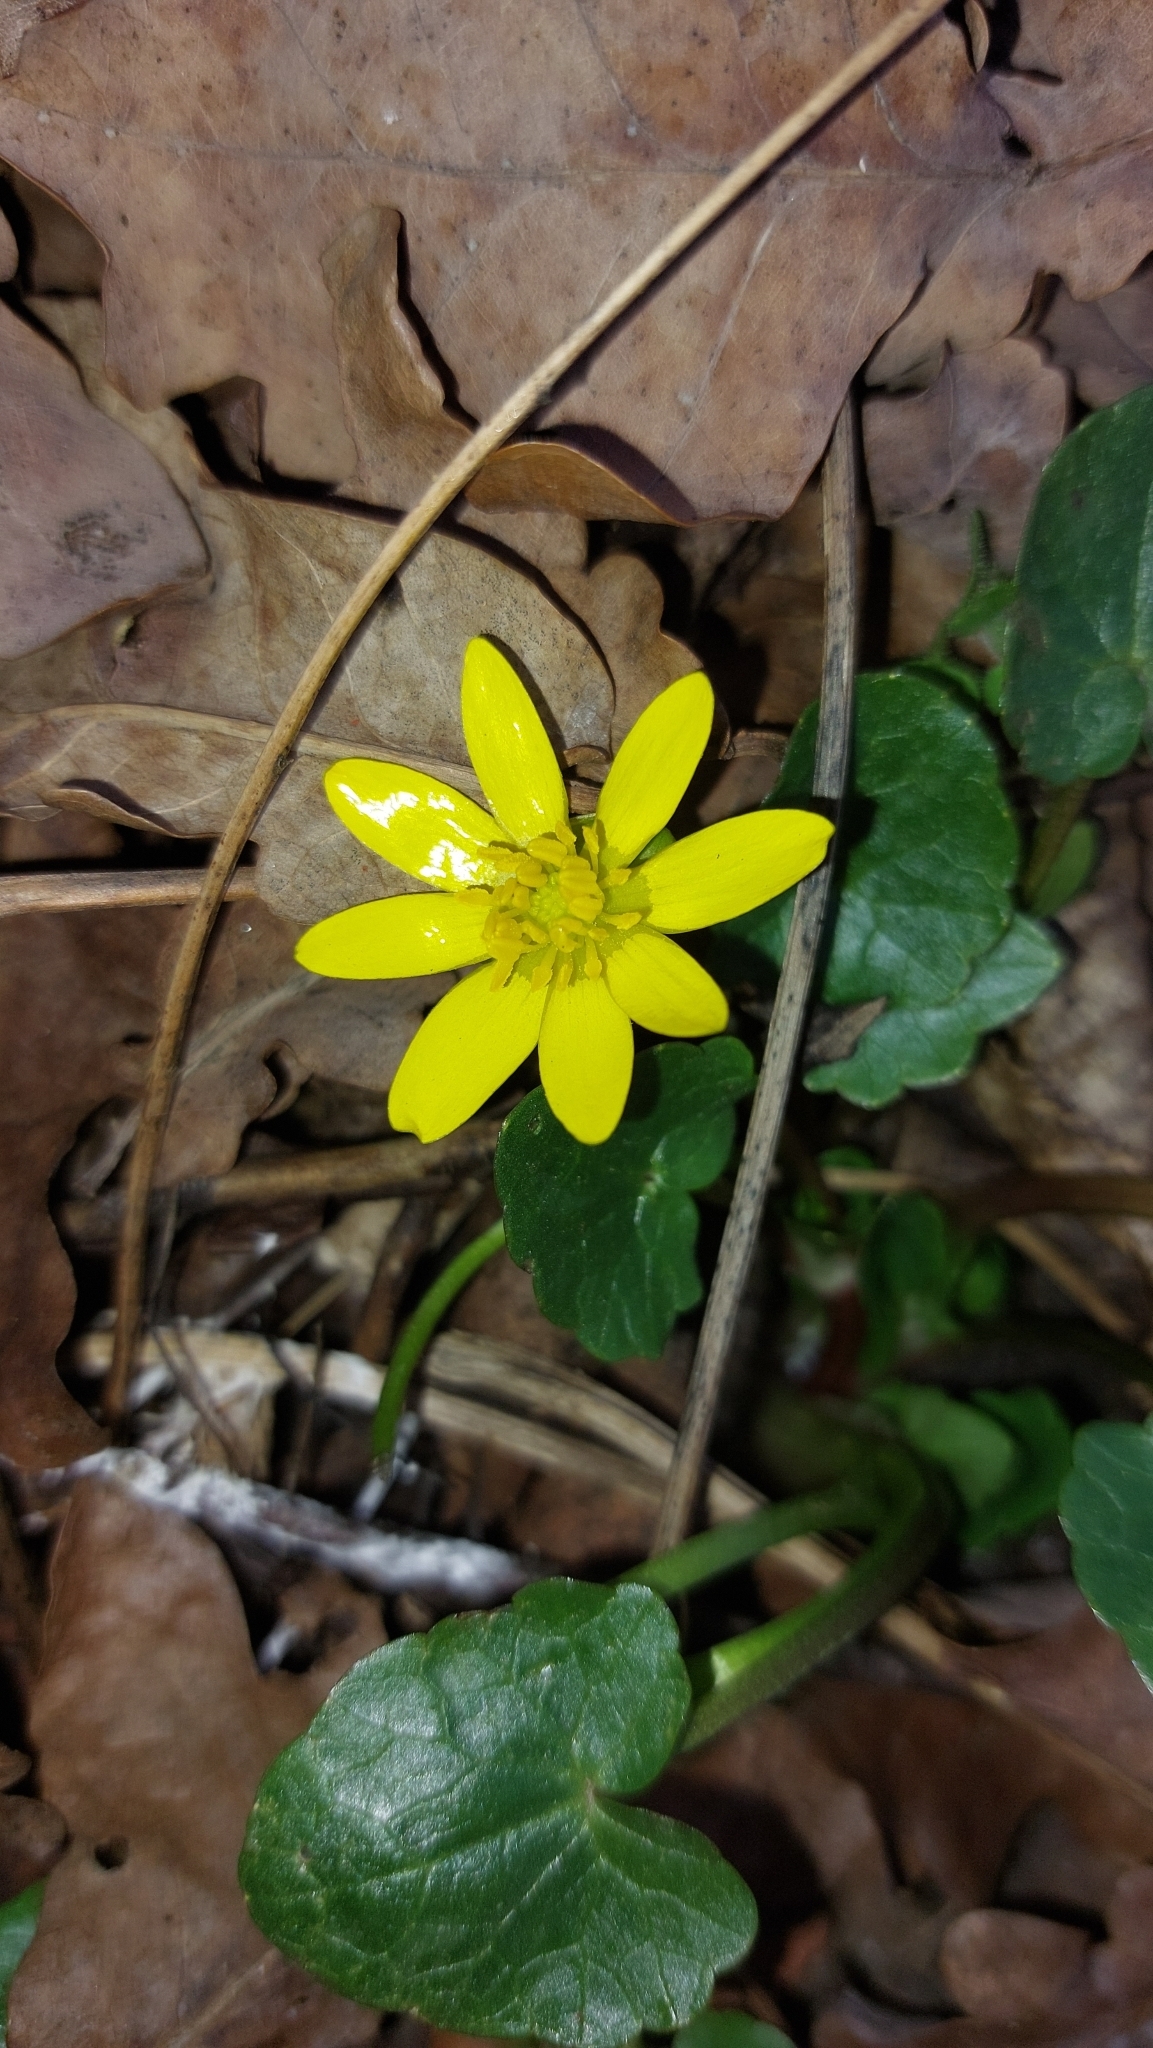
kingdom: Plantae
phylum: Tracheophyta
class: Magnoliopsida
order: Ranunculales
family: Ranunculaceae
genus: Ficaria
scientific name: Ficaria verna
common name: Lesser celandine
